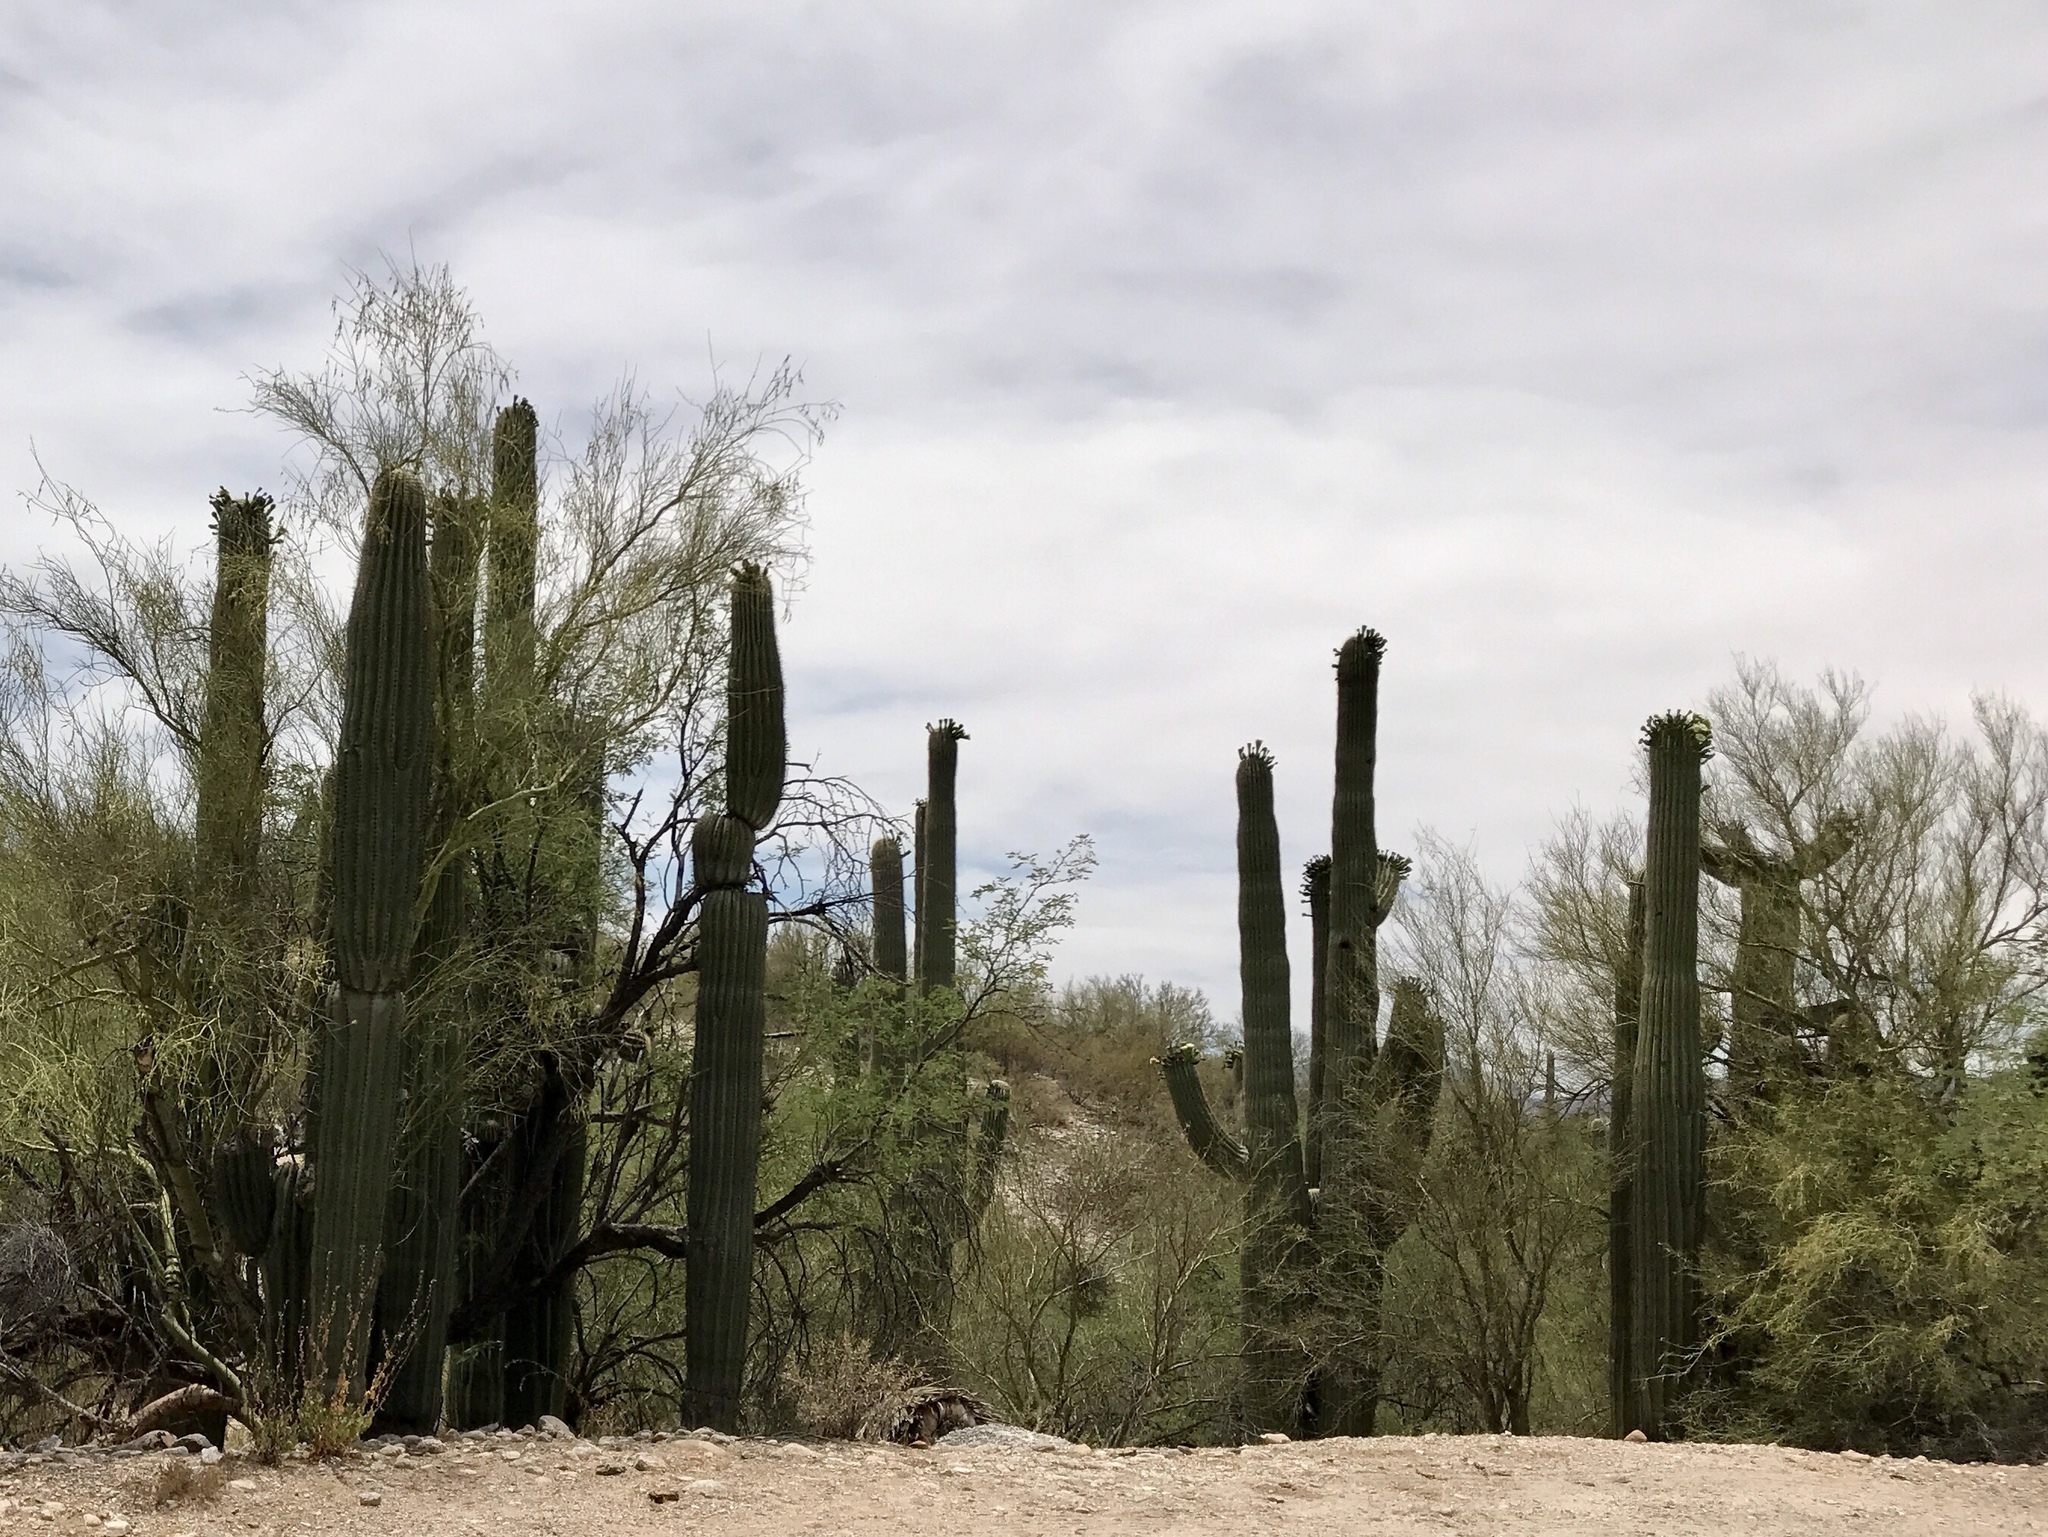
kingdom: Plantae
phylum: Tracheophyta
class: Magnoliopsida
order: Caryophyllales
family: Cactaceae
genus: Carnegiea
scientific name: Carnegiea gigantea
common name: Saguaro
